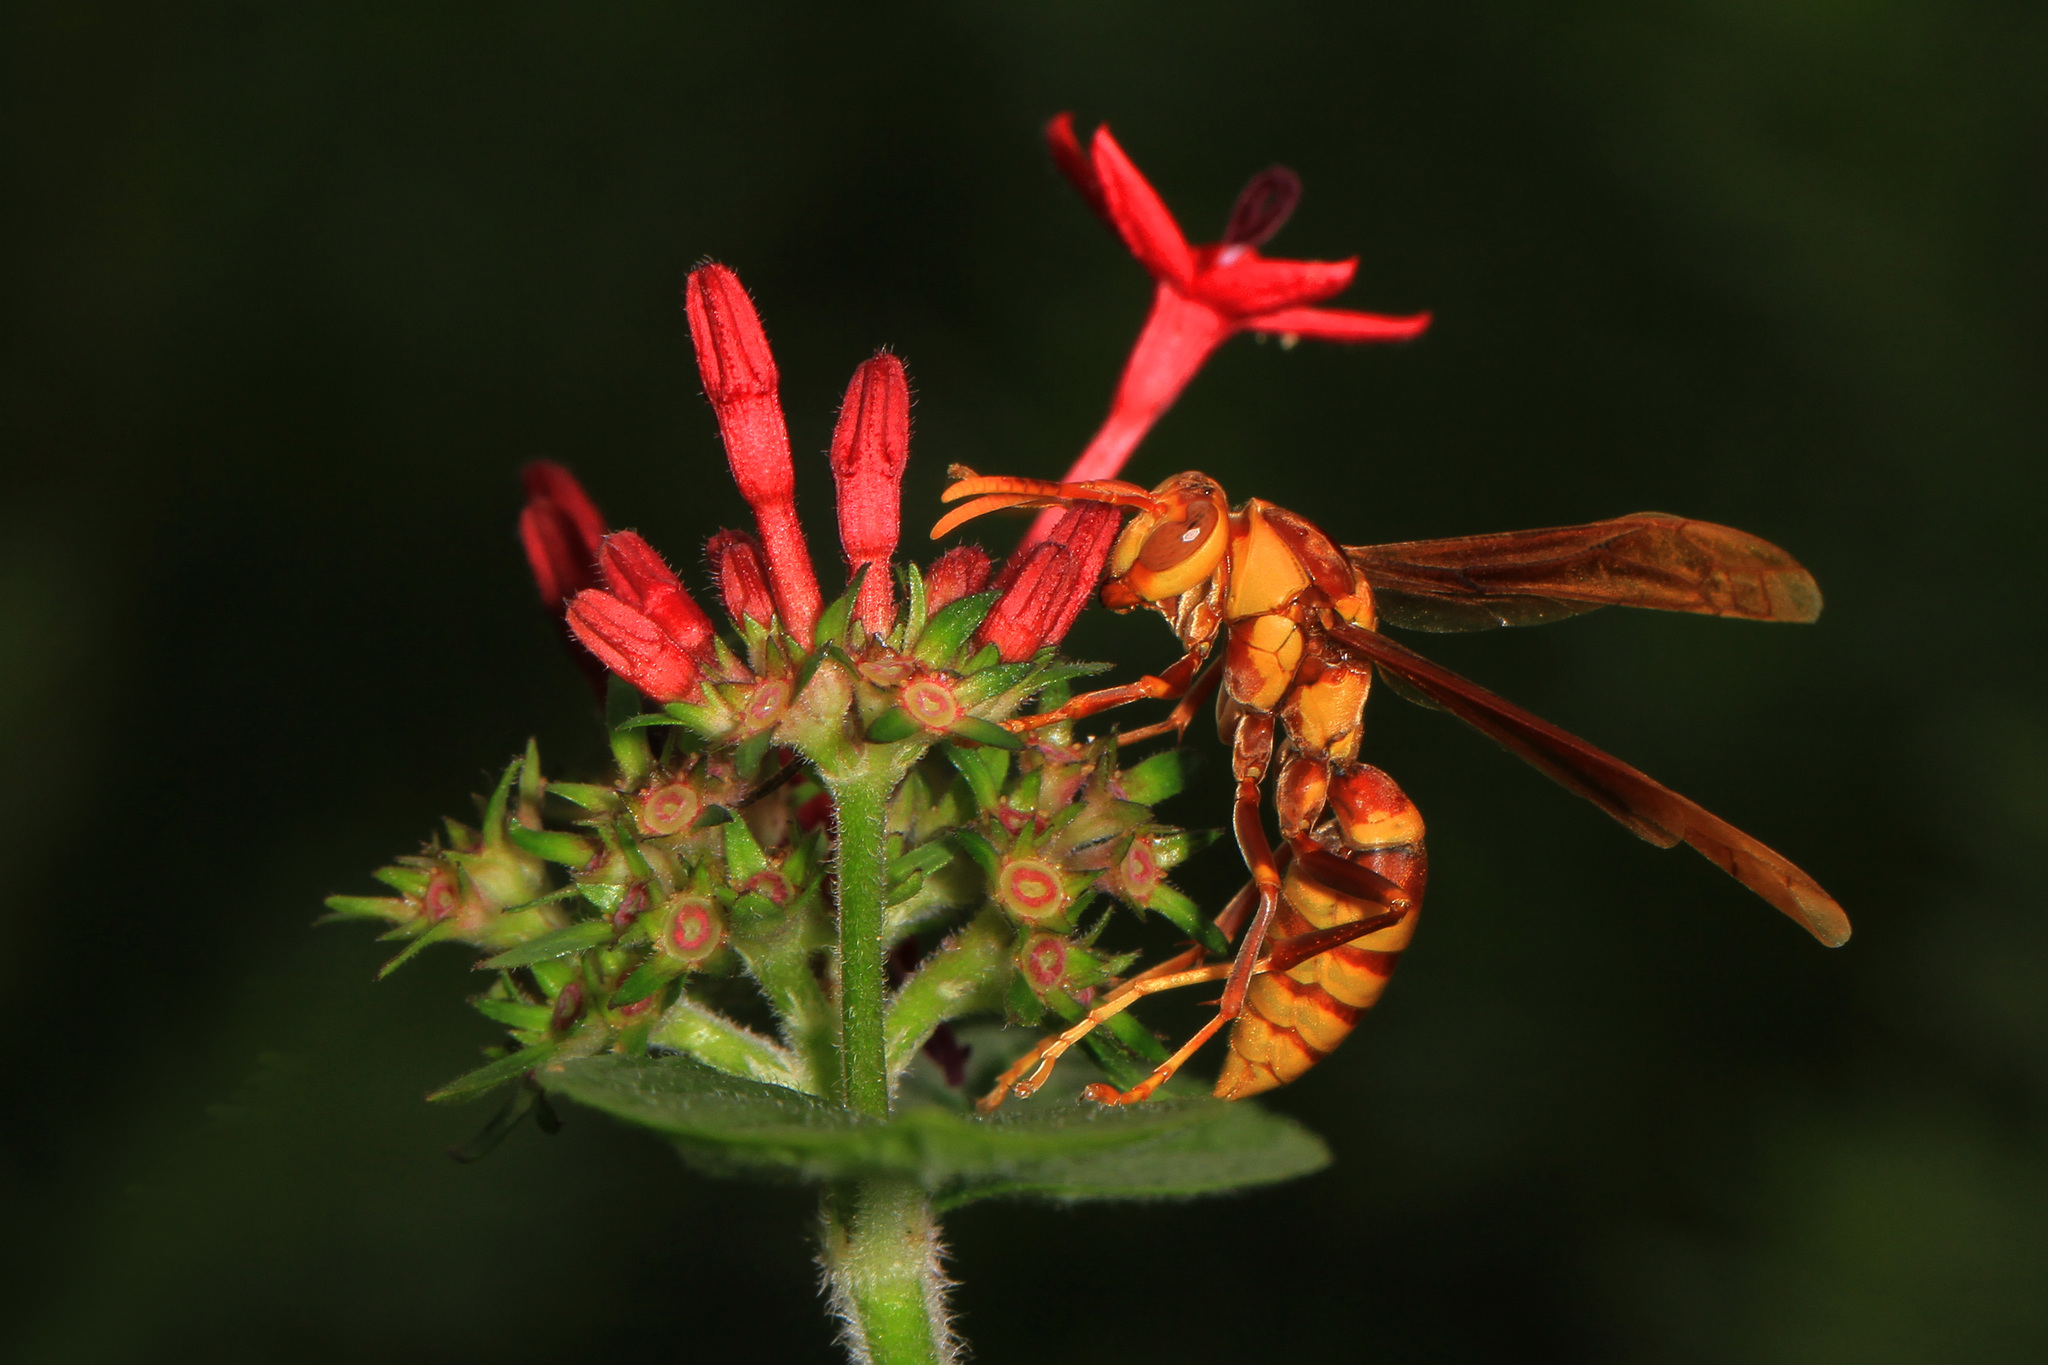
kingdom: Animalia
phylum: Arthropoda
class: Insecta
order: Hymenoptera
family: Eumenidae
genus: Polistes
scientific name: Polistes major
